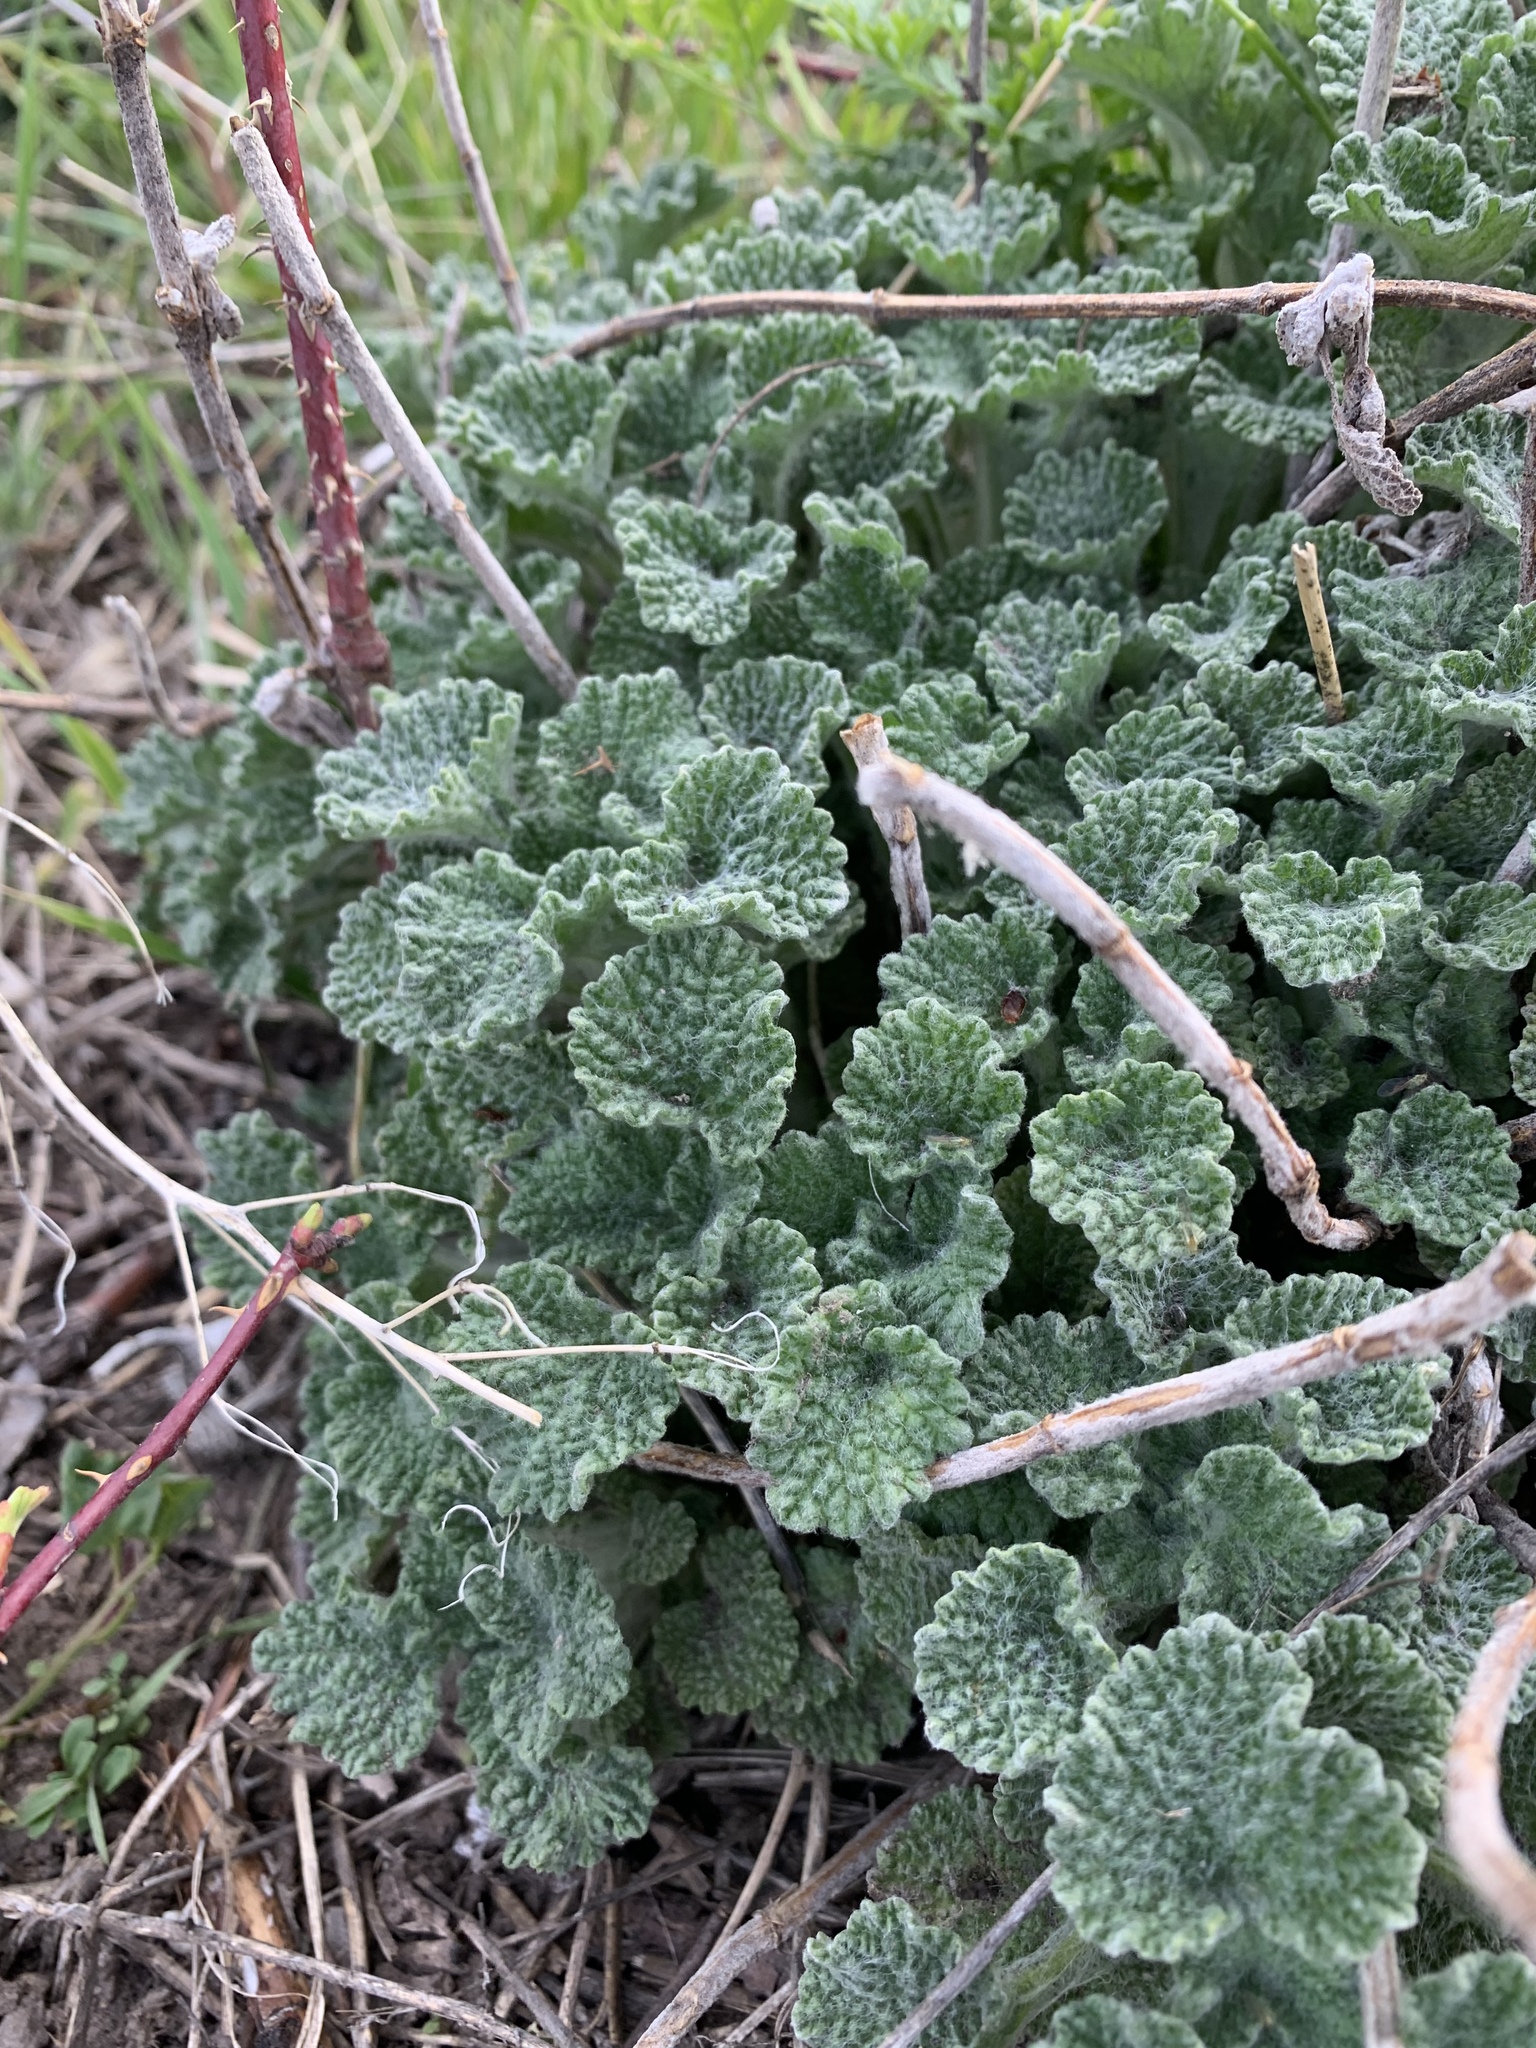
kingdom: Plantae
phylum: Tracheophyta
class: Magnoliopsida
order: Lamiales
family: Lamiaceae
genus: Marrubium
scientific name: Marrubium vulgare
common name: Horehound
